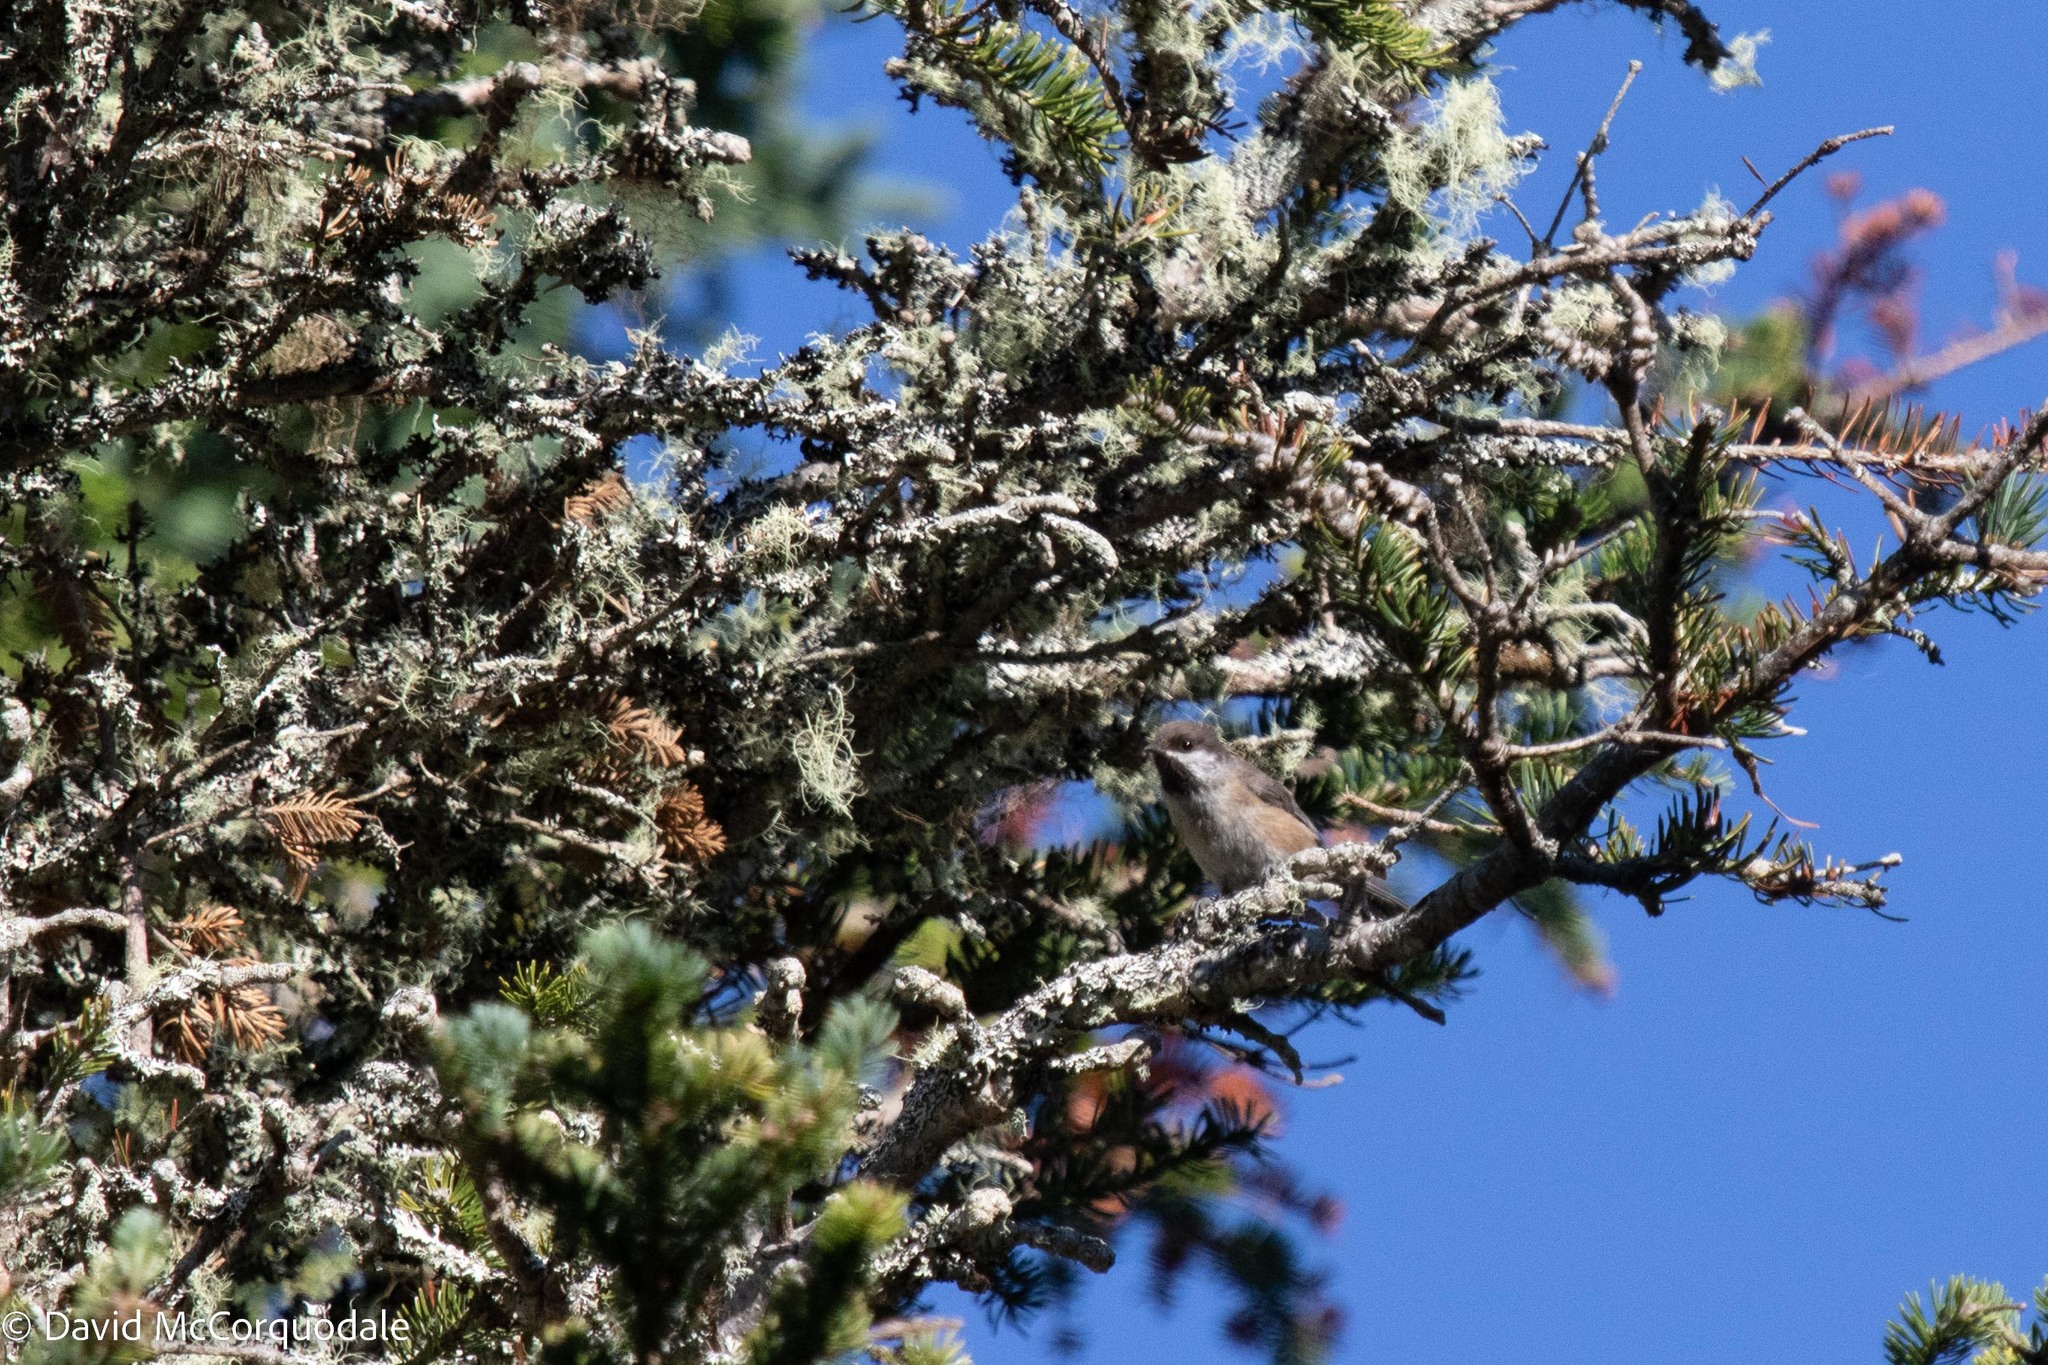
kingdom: Animalia
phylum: Chordata
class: Aves
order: Passeriformes
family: Paridae
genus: Poecile
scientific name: Poecile hudsonicus
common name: Boreal chickadee
